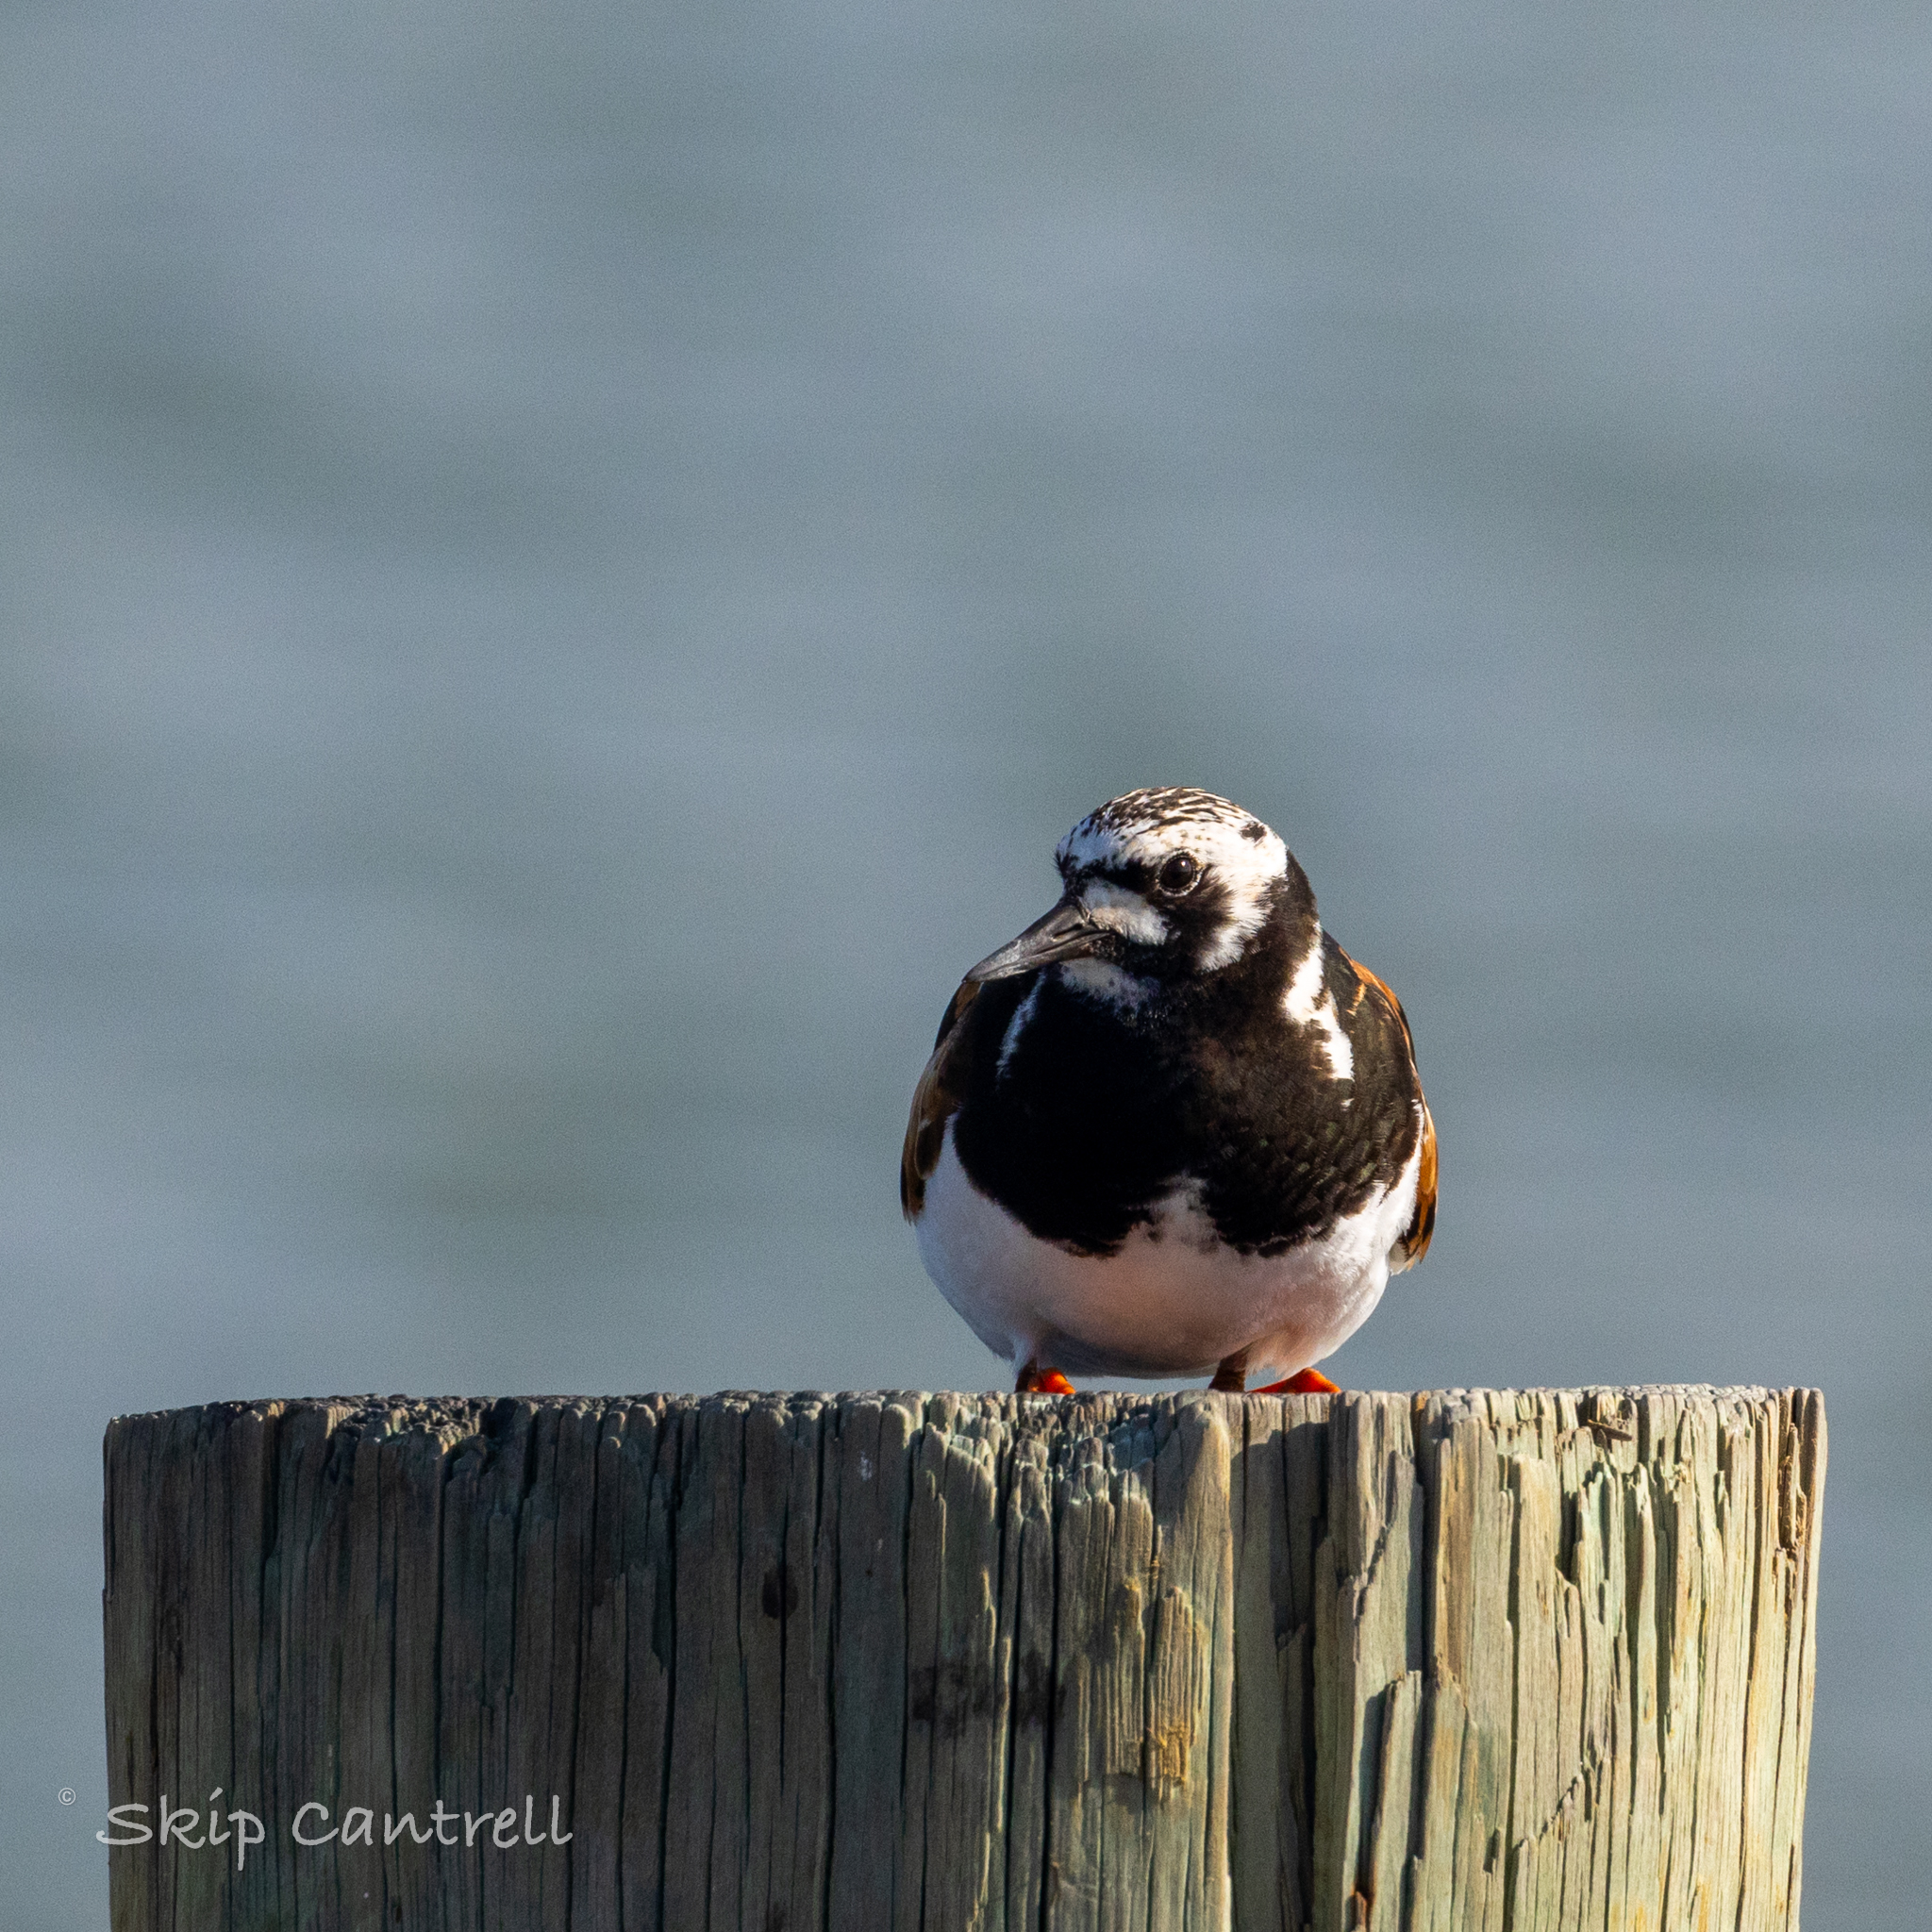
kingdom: Animalia
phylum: Chordata
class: Aves
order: Charadriiformes
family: Scolopacidae
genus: Arenaria
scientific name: Arenaria interpres
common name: Ruddy turnstone
